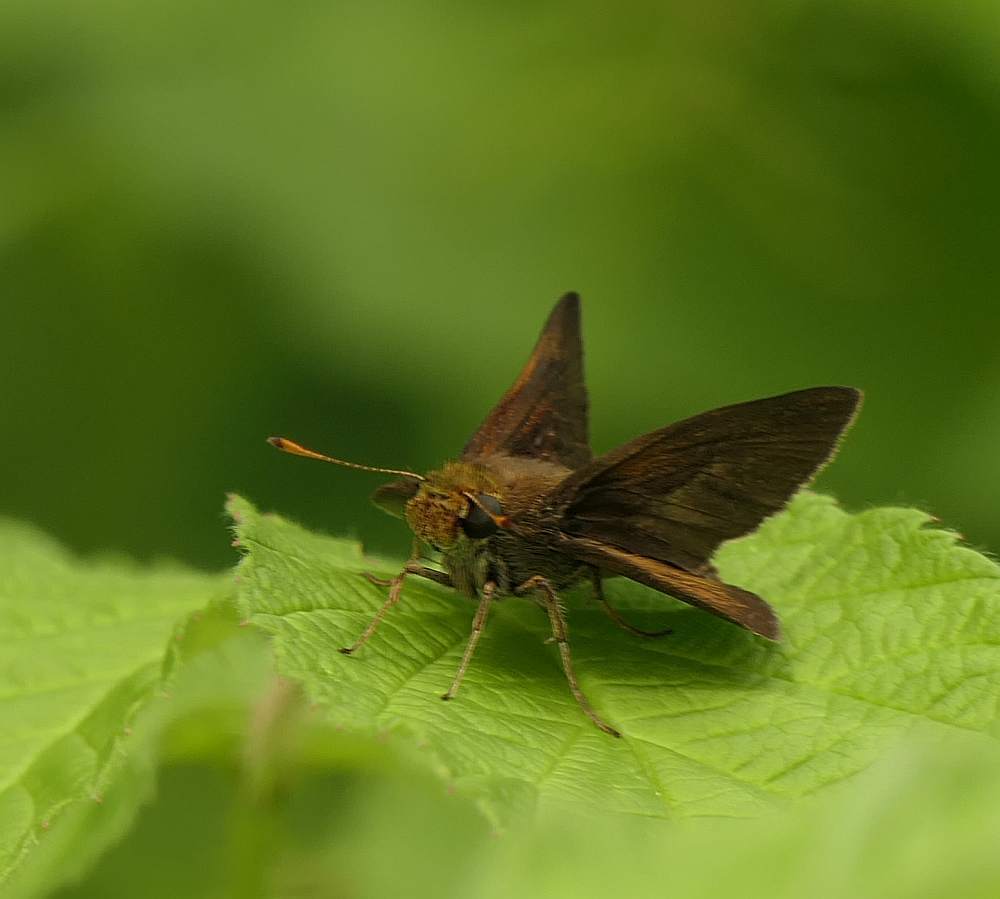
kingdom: Animalia
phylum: Arthropoda
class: Insecta
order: Lepidoptera
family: Hesperiidae
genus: Euphyes
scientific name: Euphyes vestris
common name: Dun skipper
